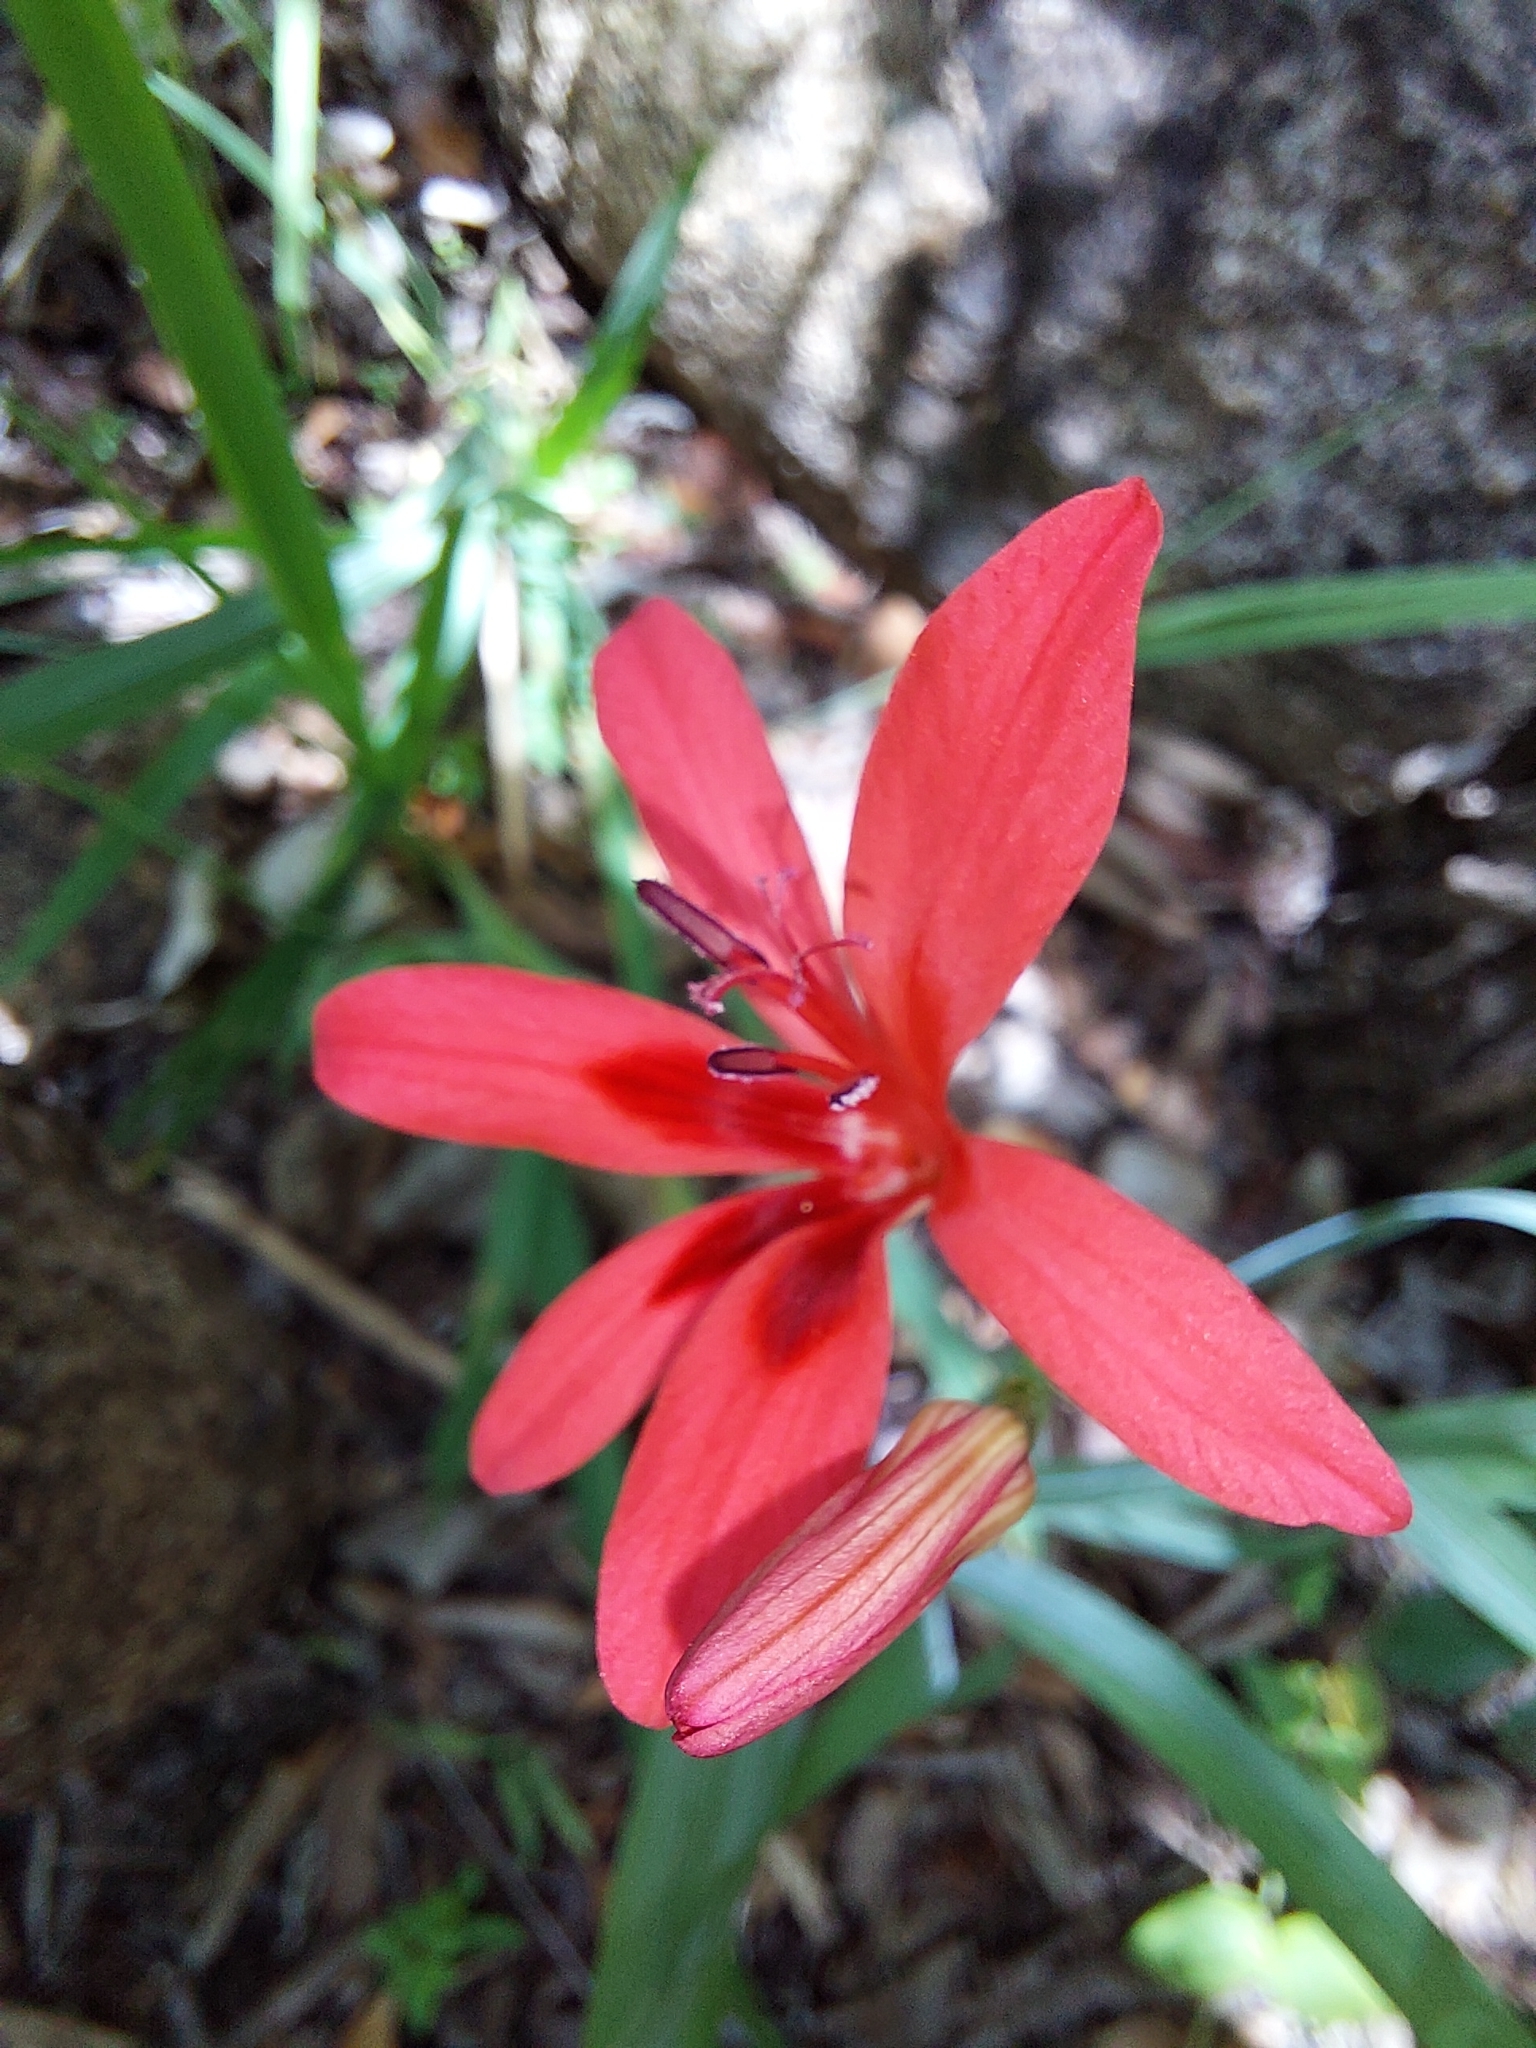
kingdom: Plantae
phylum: Tracheophyta
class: Liliopsida
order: Asparagales
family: Iridaceae
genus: Freesia
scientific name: Freesia grandiflora
